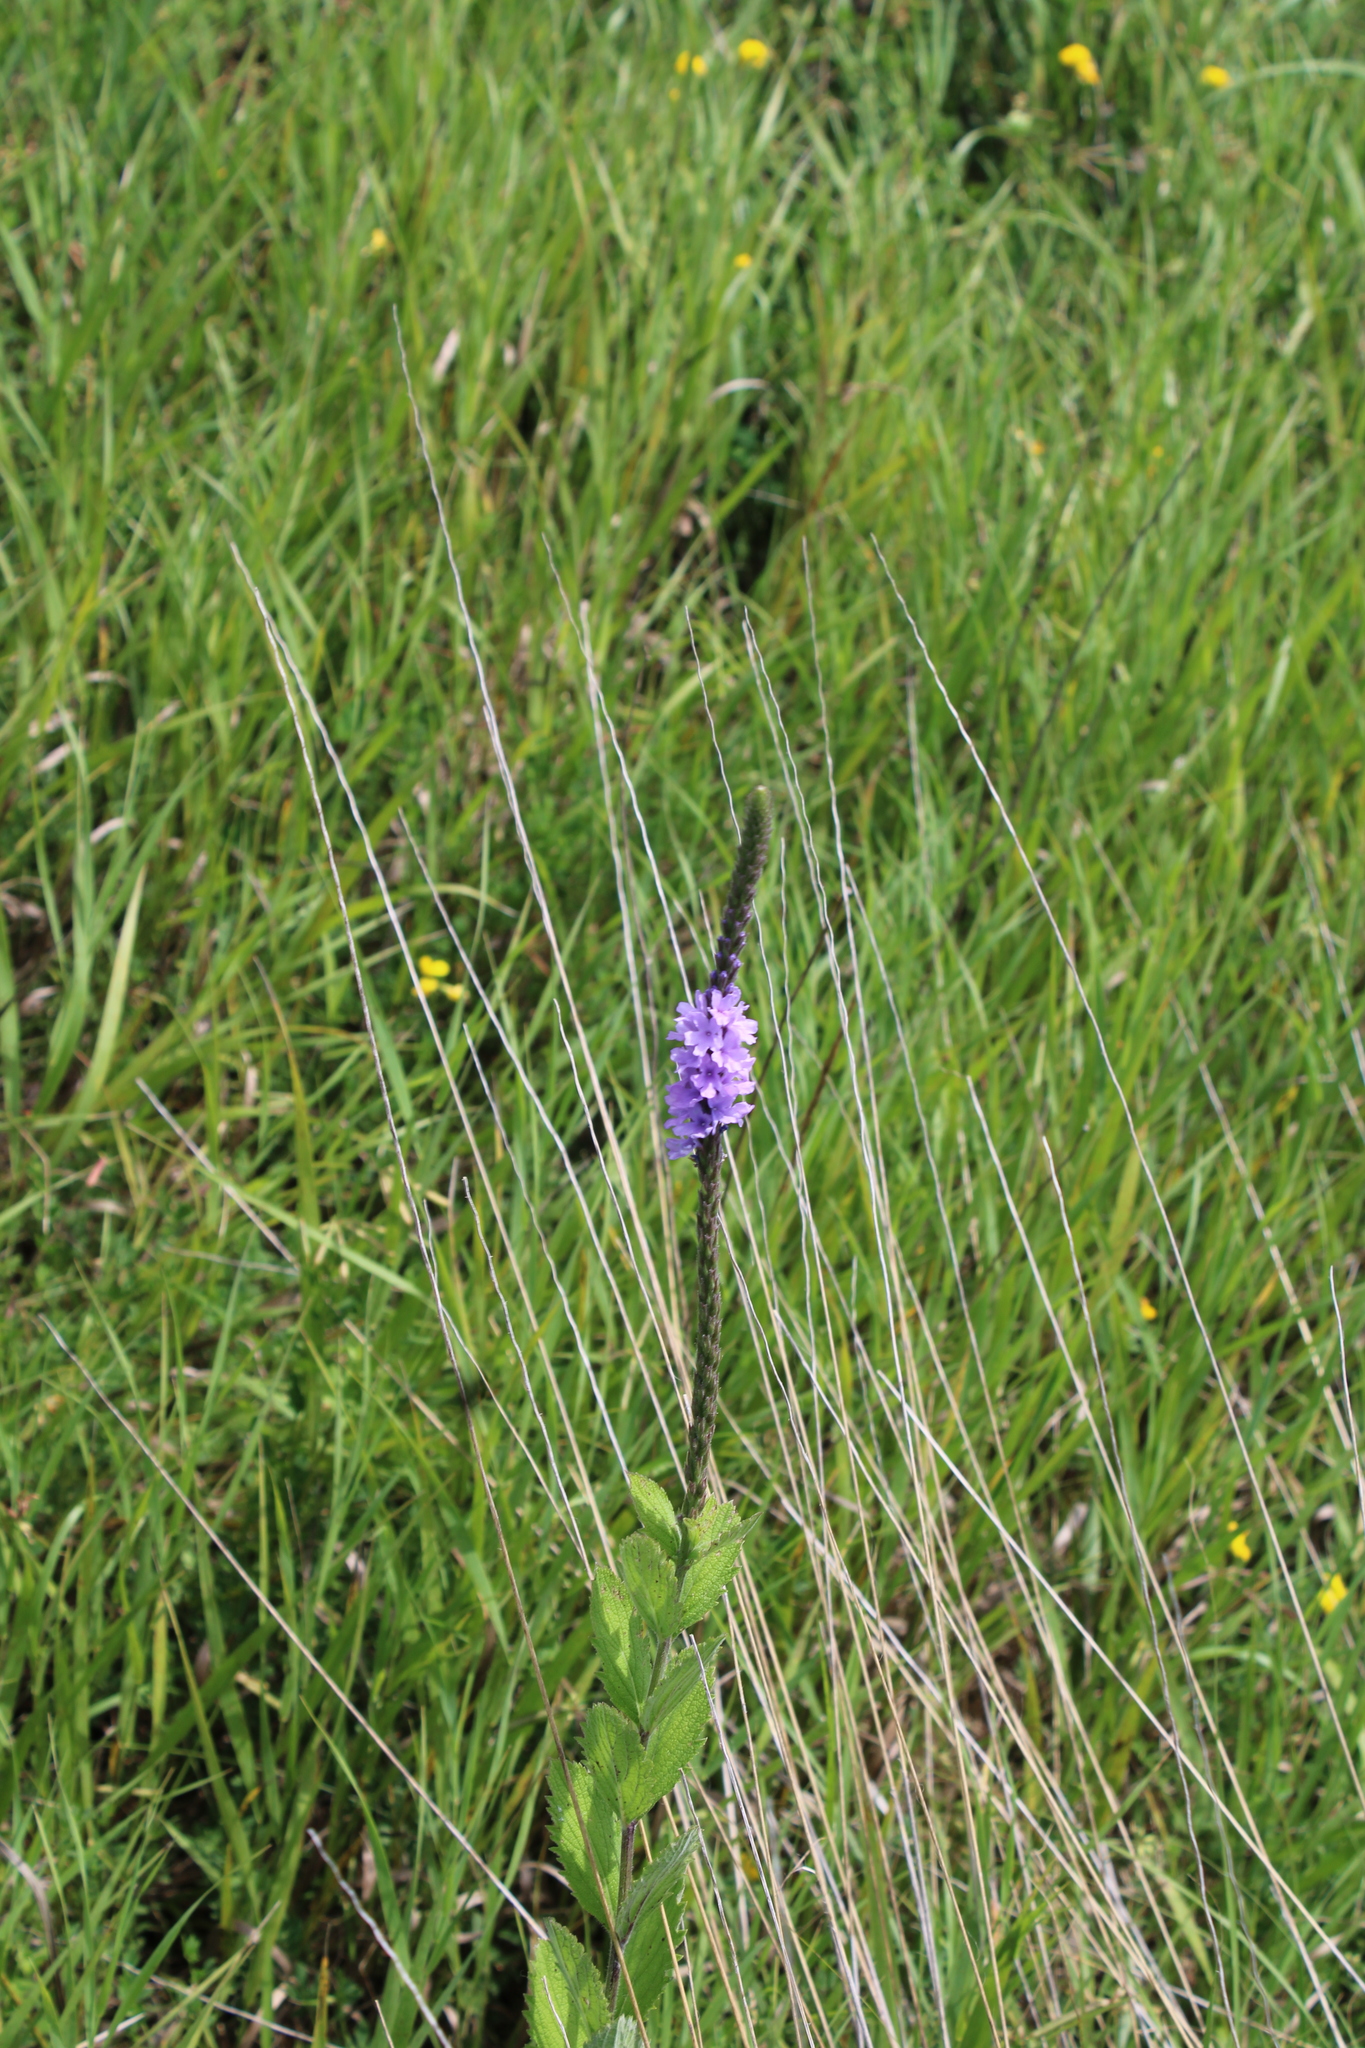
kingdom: Plantae
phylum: Tracheophyta
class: Magnoliopsida
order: Lamiales
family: Verbenaceae
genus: Verbena
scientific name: Verbena stricta
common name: Hoary vervain
